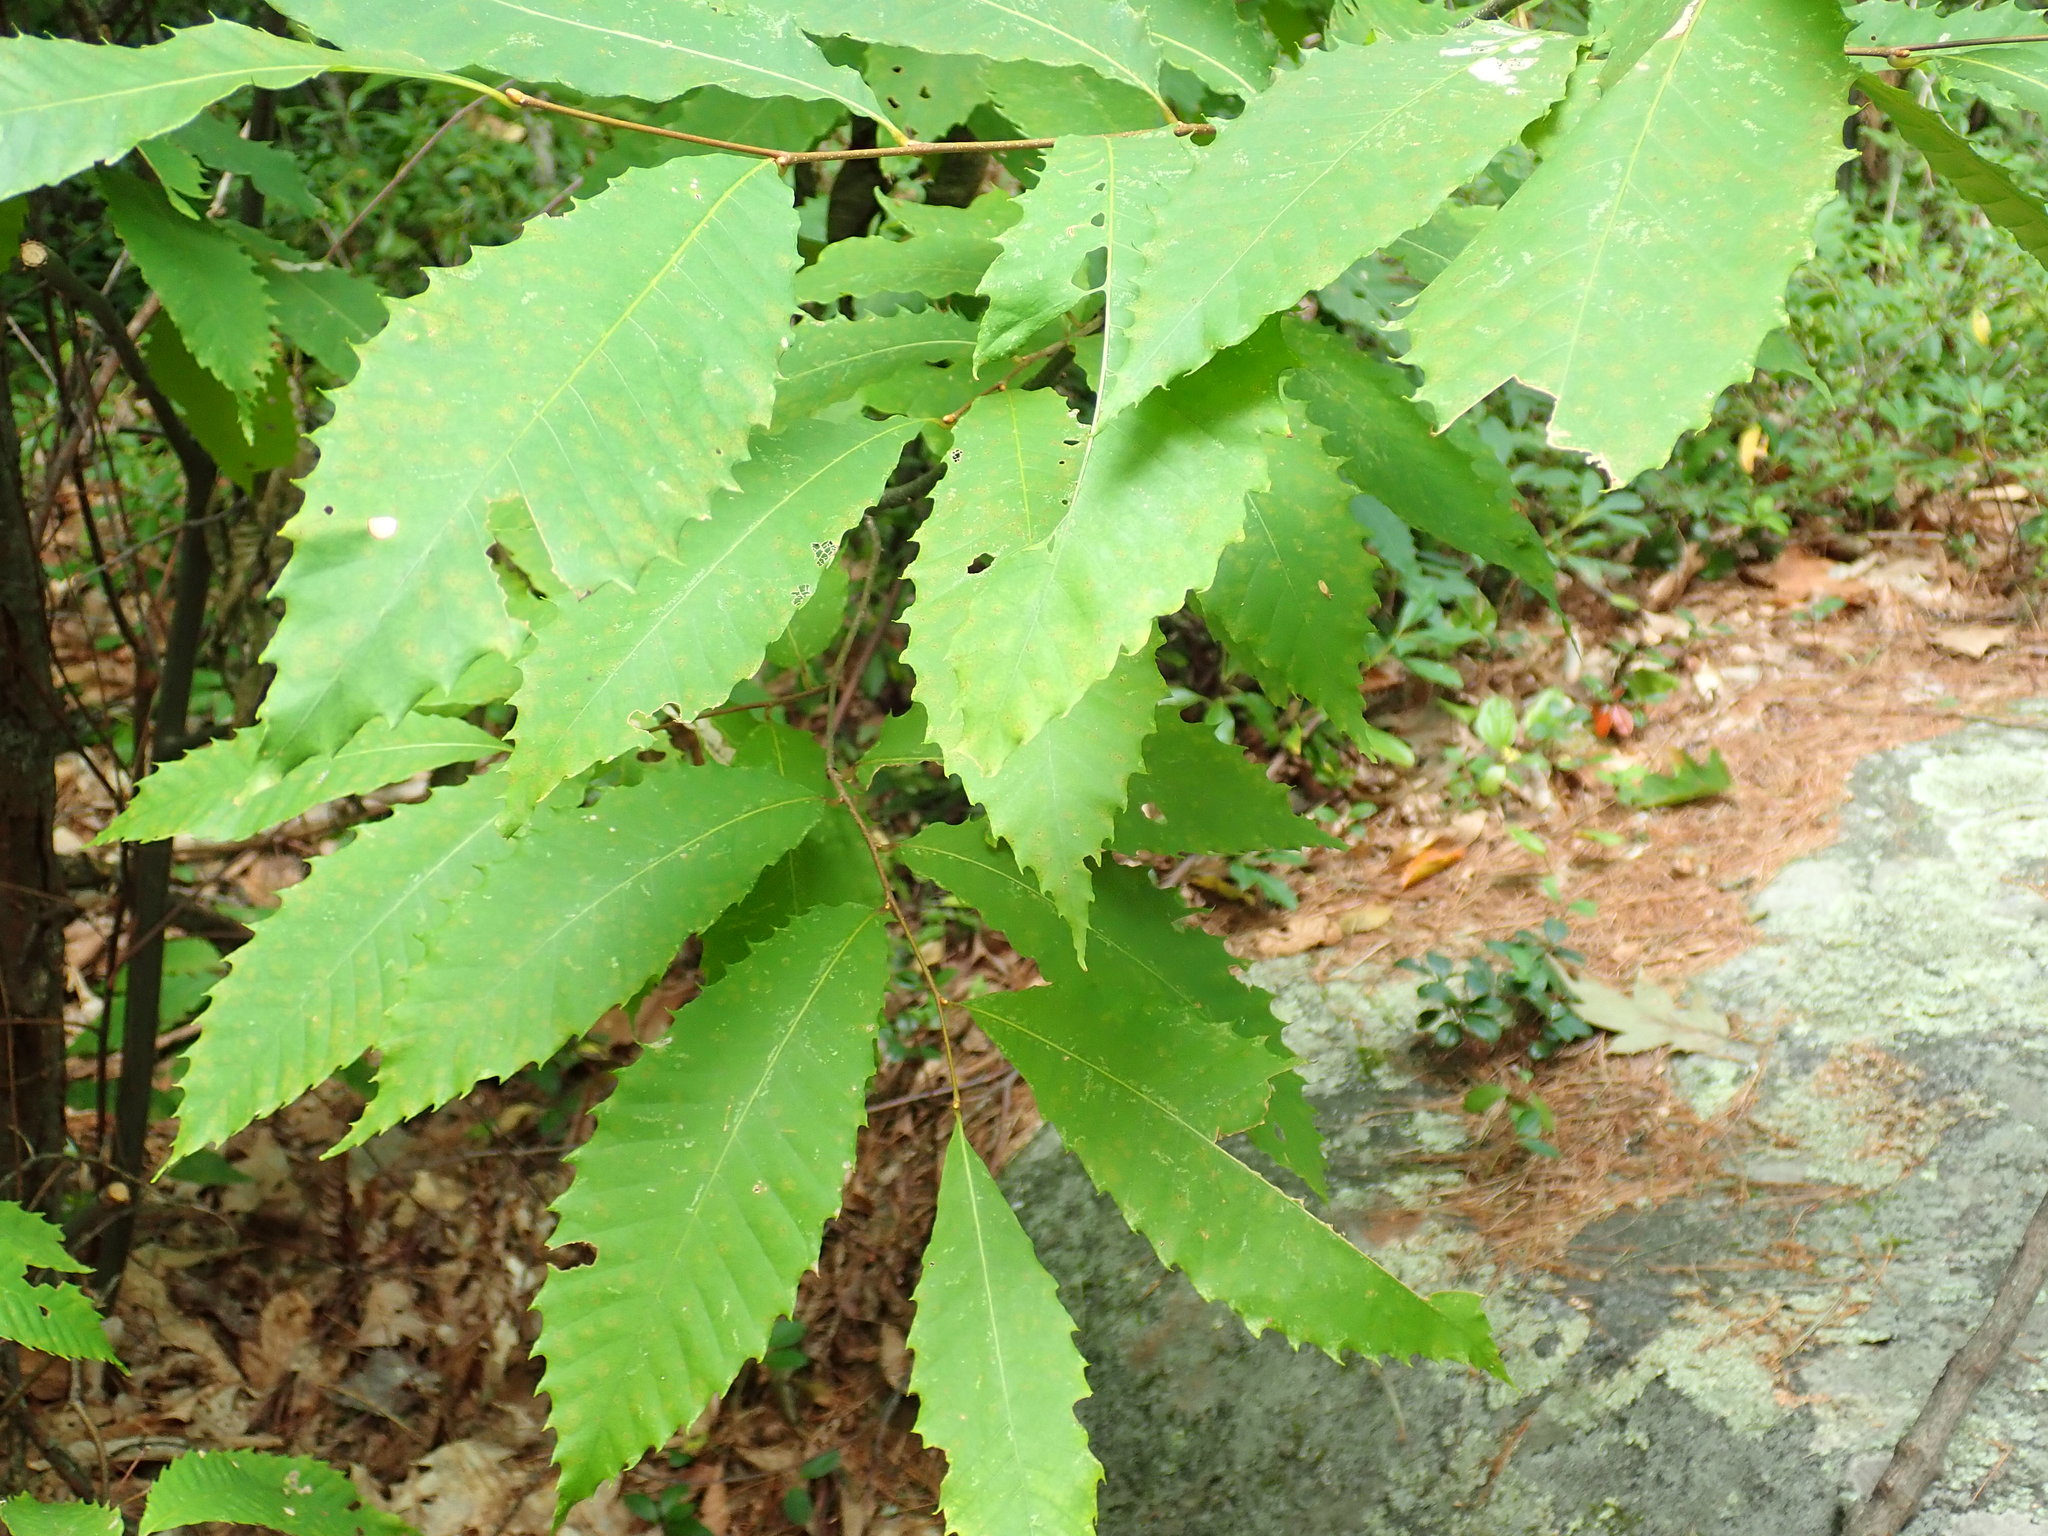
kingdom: Plantae
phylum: Tracheophyta
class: Magnoliopsida
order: Fagales
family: Fagaceae
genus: Castanea
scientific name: Castanea dentata
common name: American chestnut
